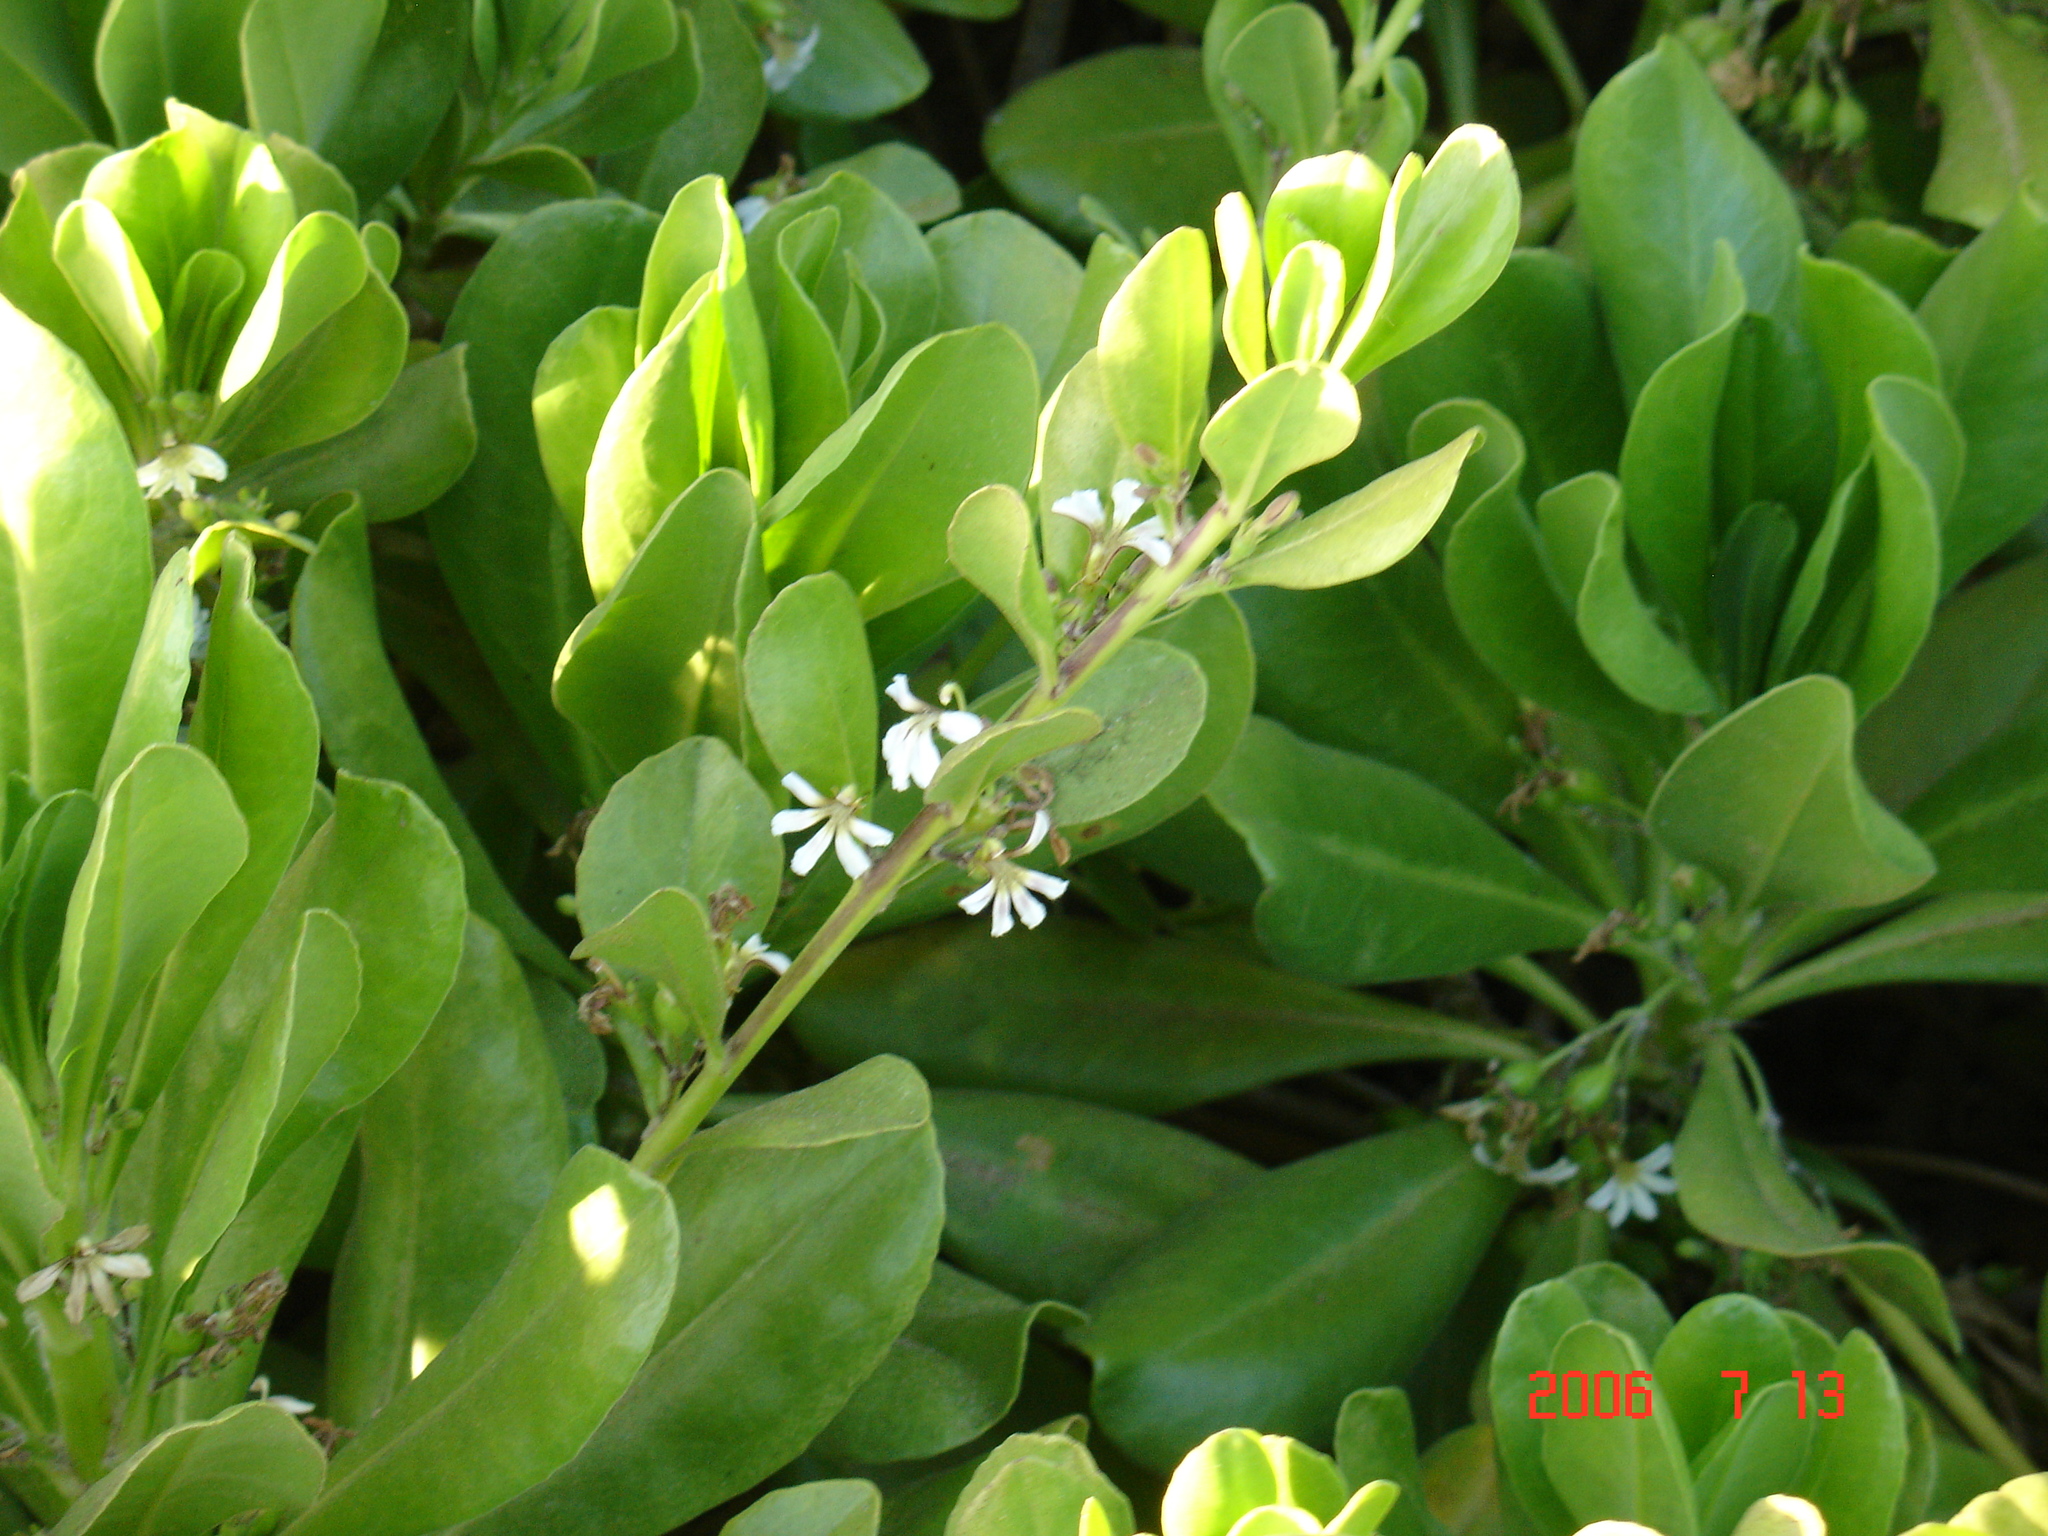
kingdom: Plantae
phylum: Tracheophyta
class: Magnoliopsida
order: Asterales
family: Goodeniaceae
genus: Scaevola
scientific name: Scaevola taccada
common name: Sea lettucetree
